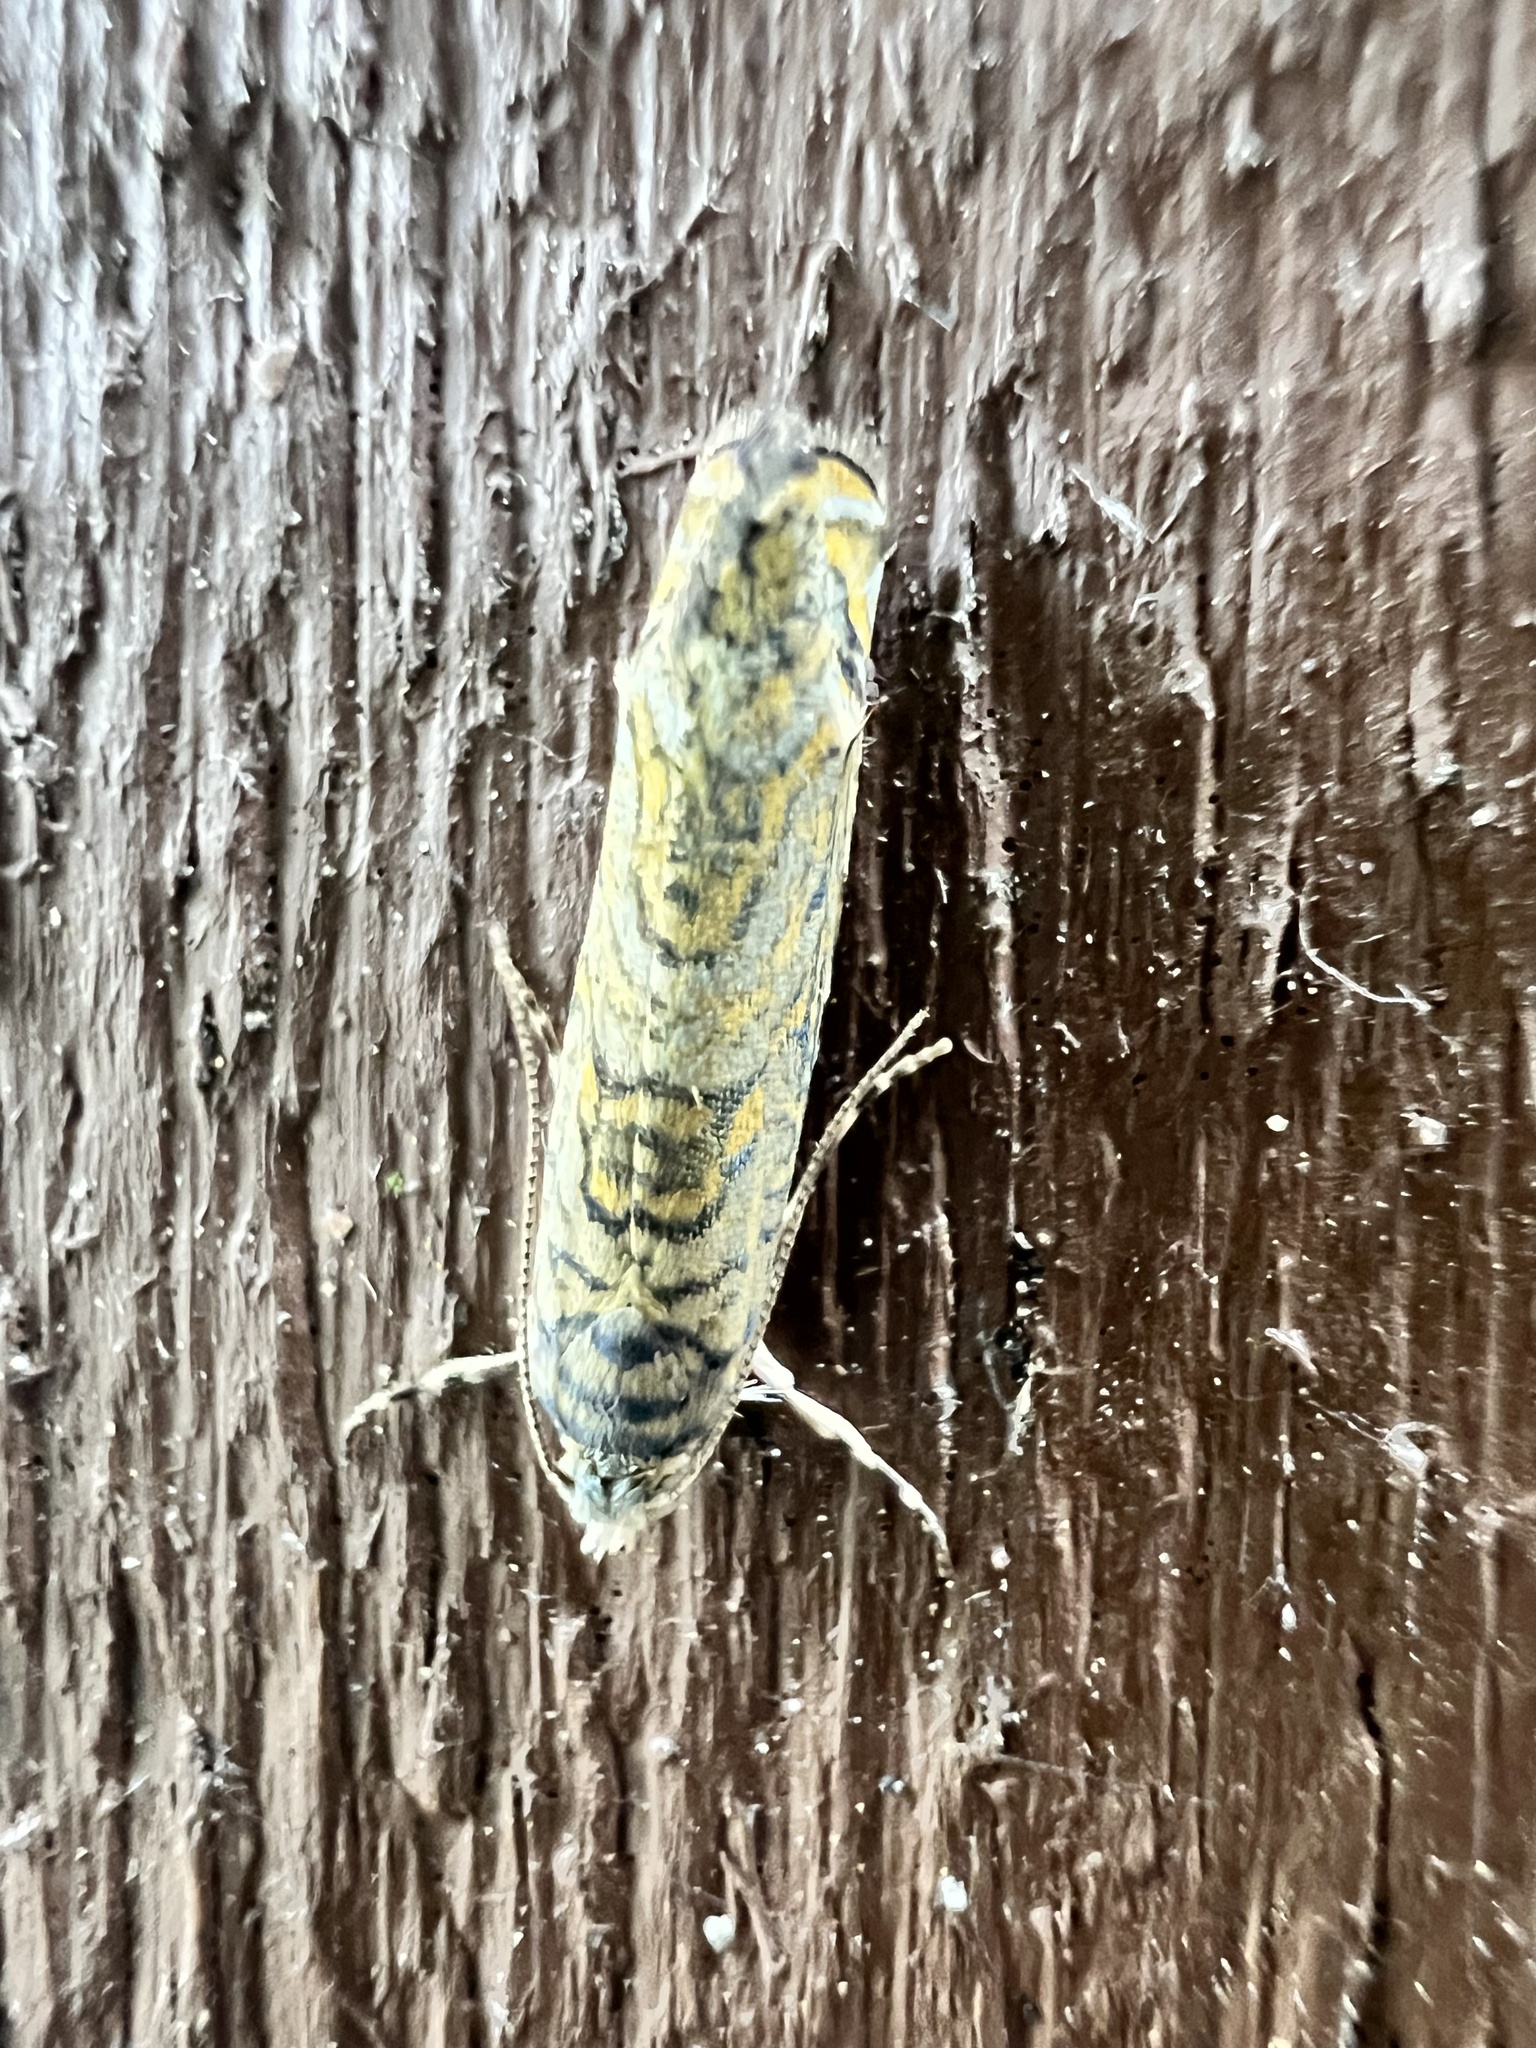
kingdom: Animalia
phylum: Arthropoda
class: Insecta
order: Lepidoptera
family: Plutellidae
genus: Doxophyrtis
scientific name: Doxophyrtis hydrocosma
